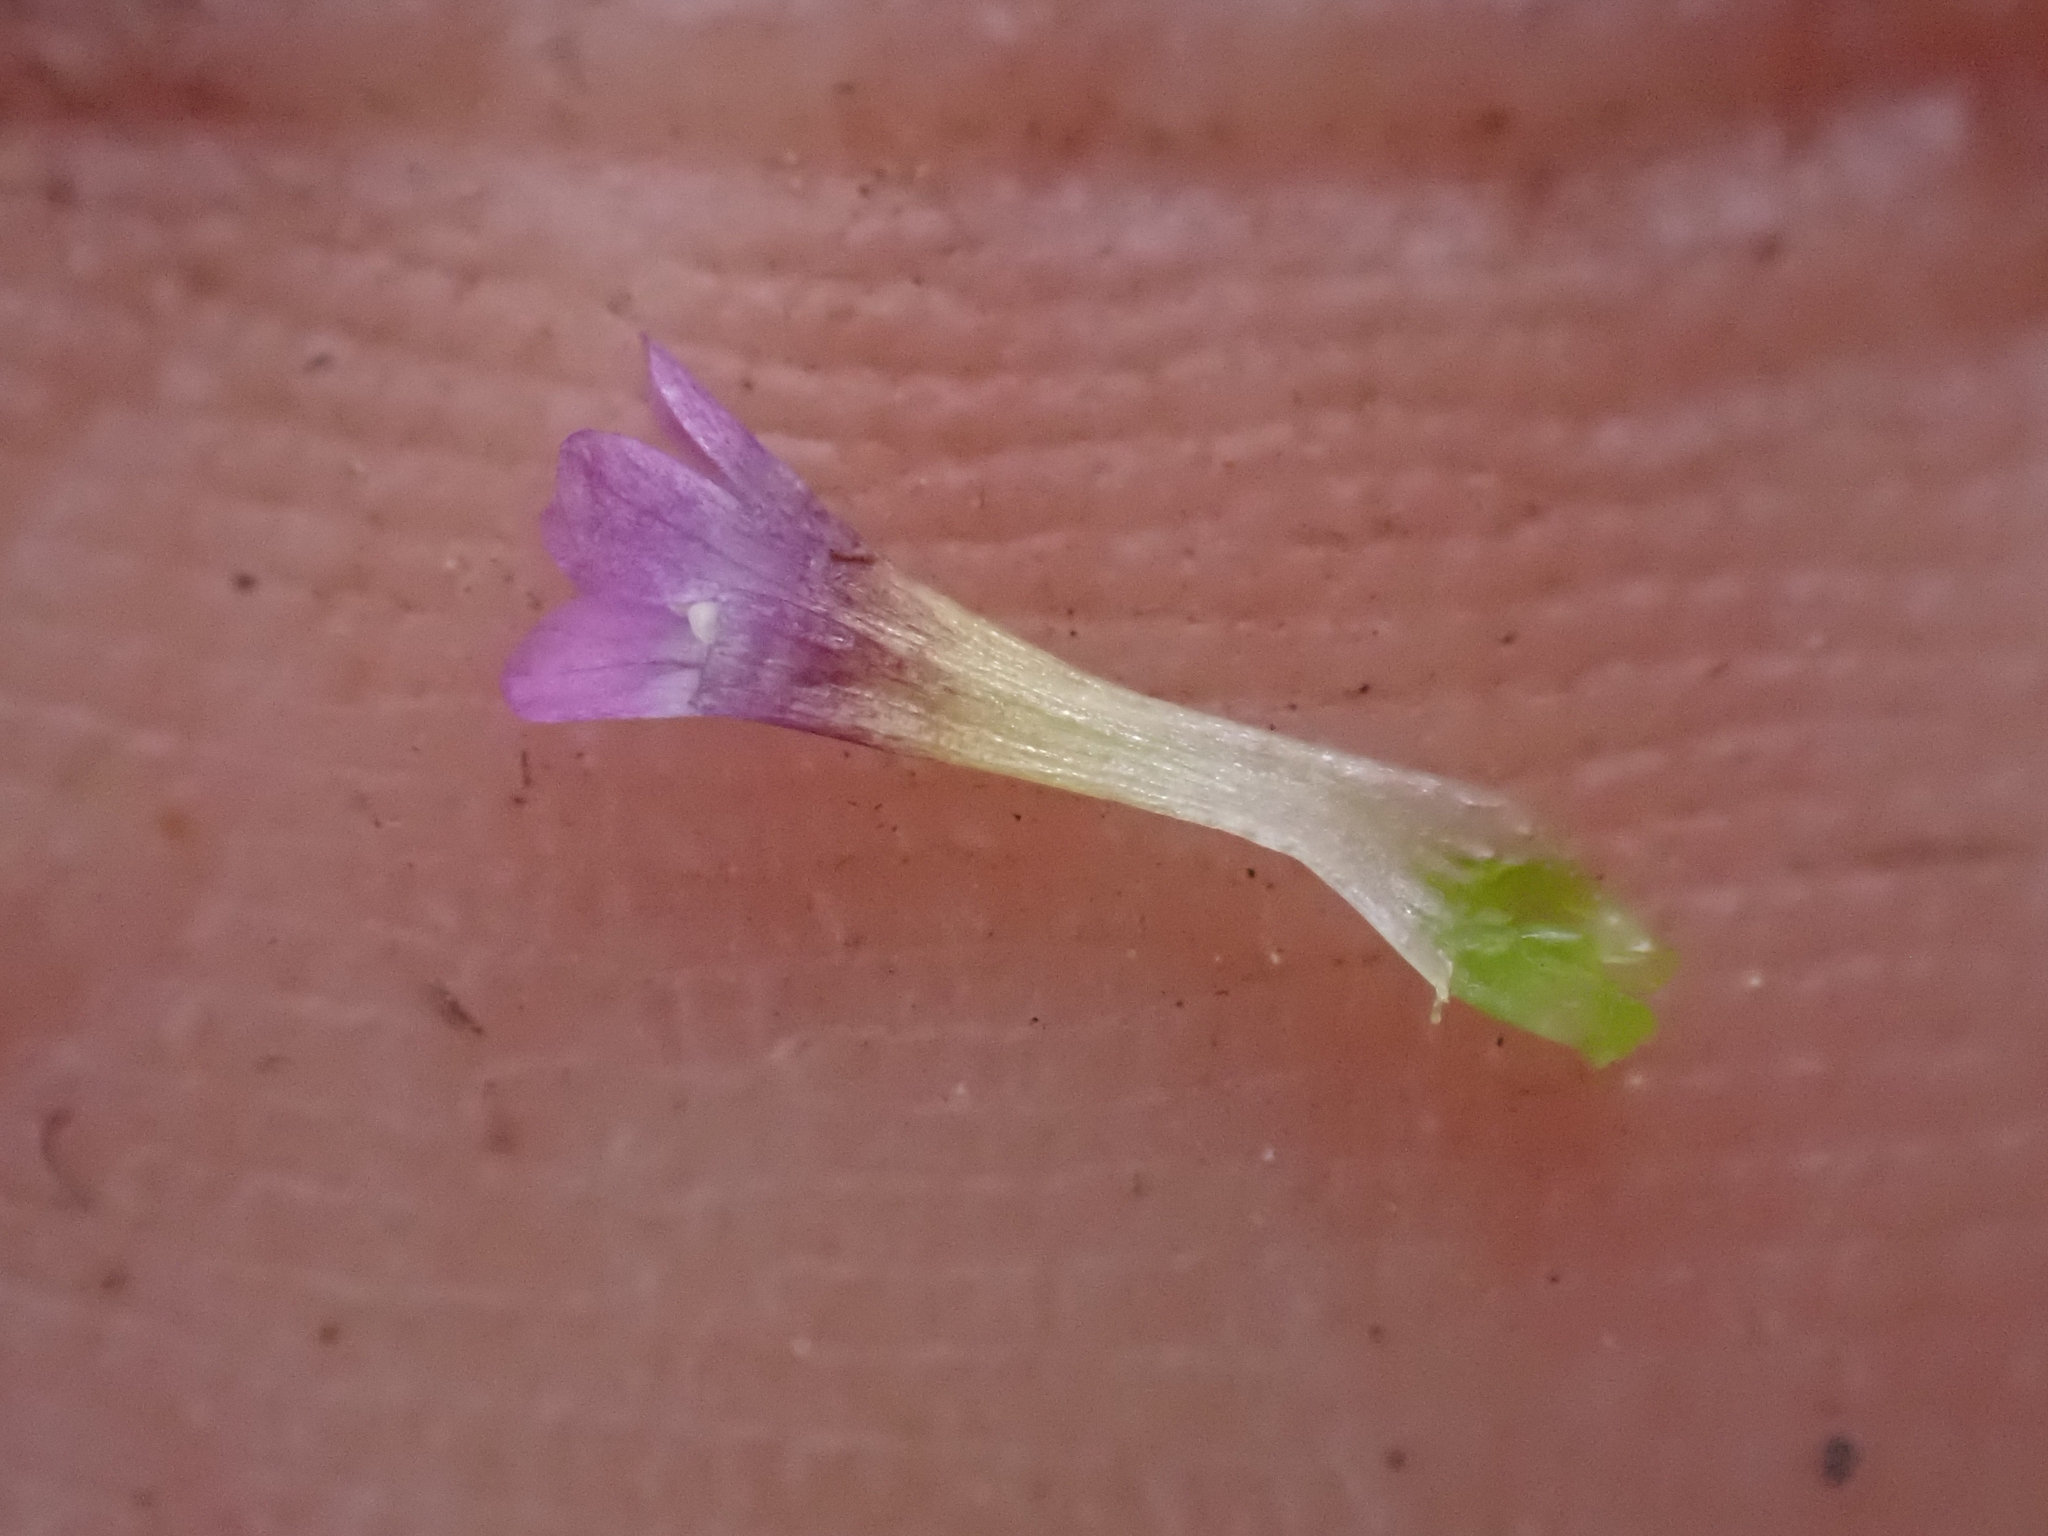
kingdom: Plantae
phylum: Tracheophyta
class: Magnoliopsida
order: Ericales
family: Polemoniaceae
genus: Navarretia
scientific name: Navarretia miwukensis
